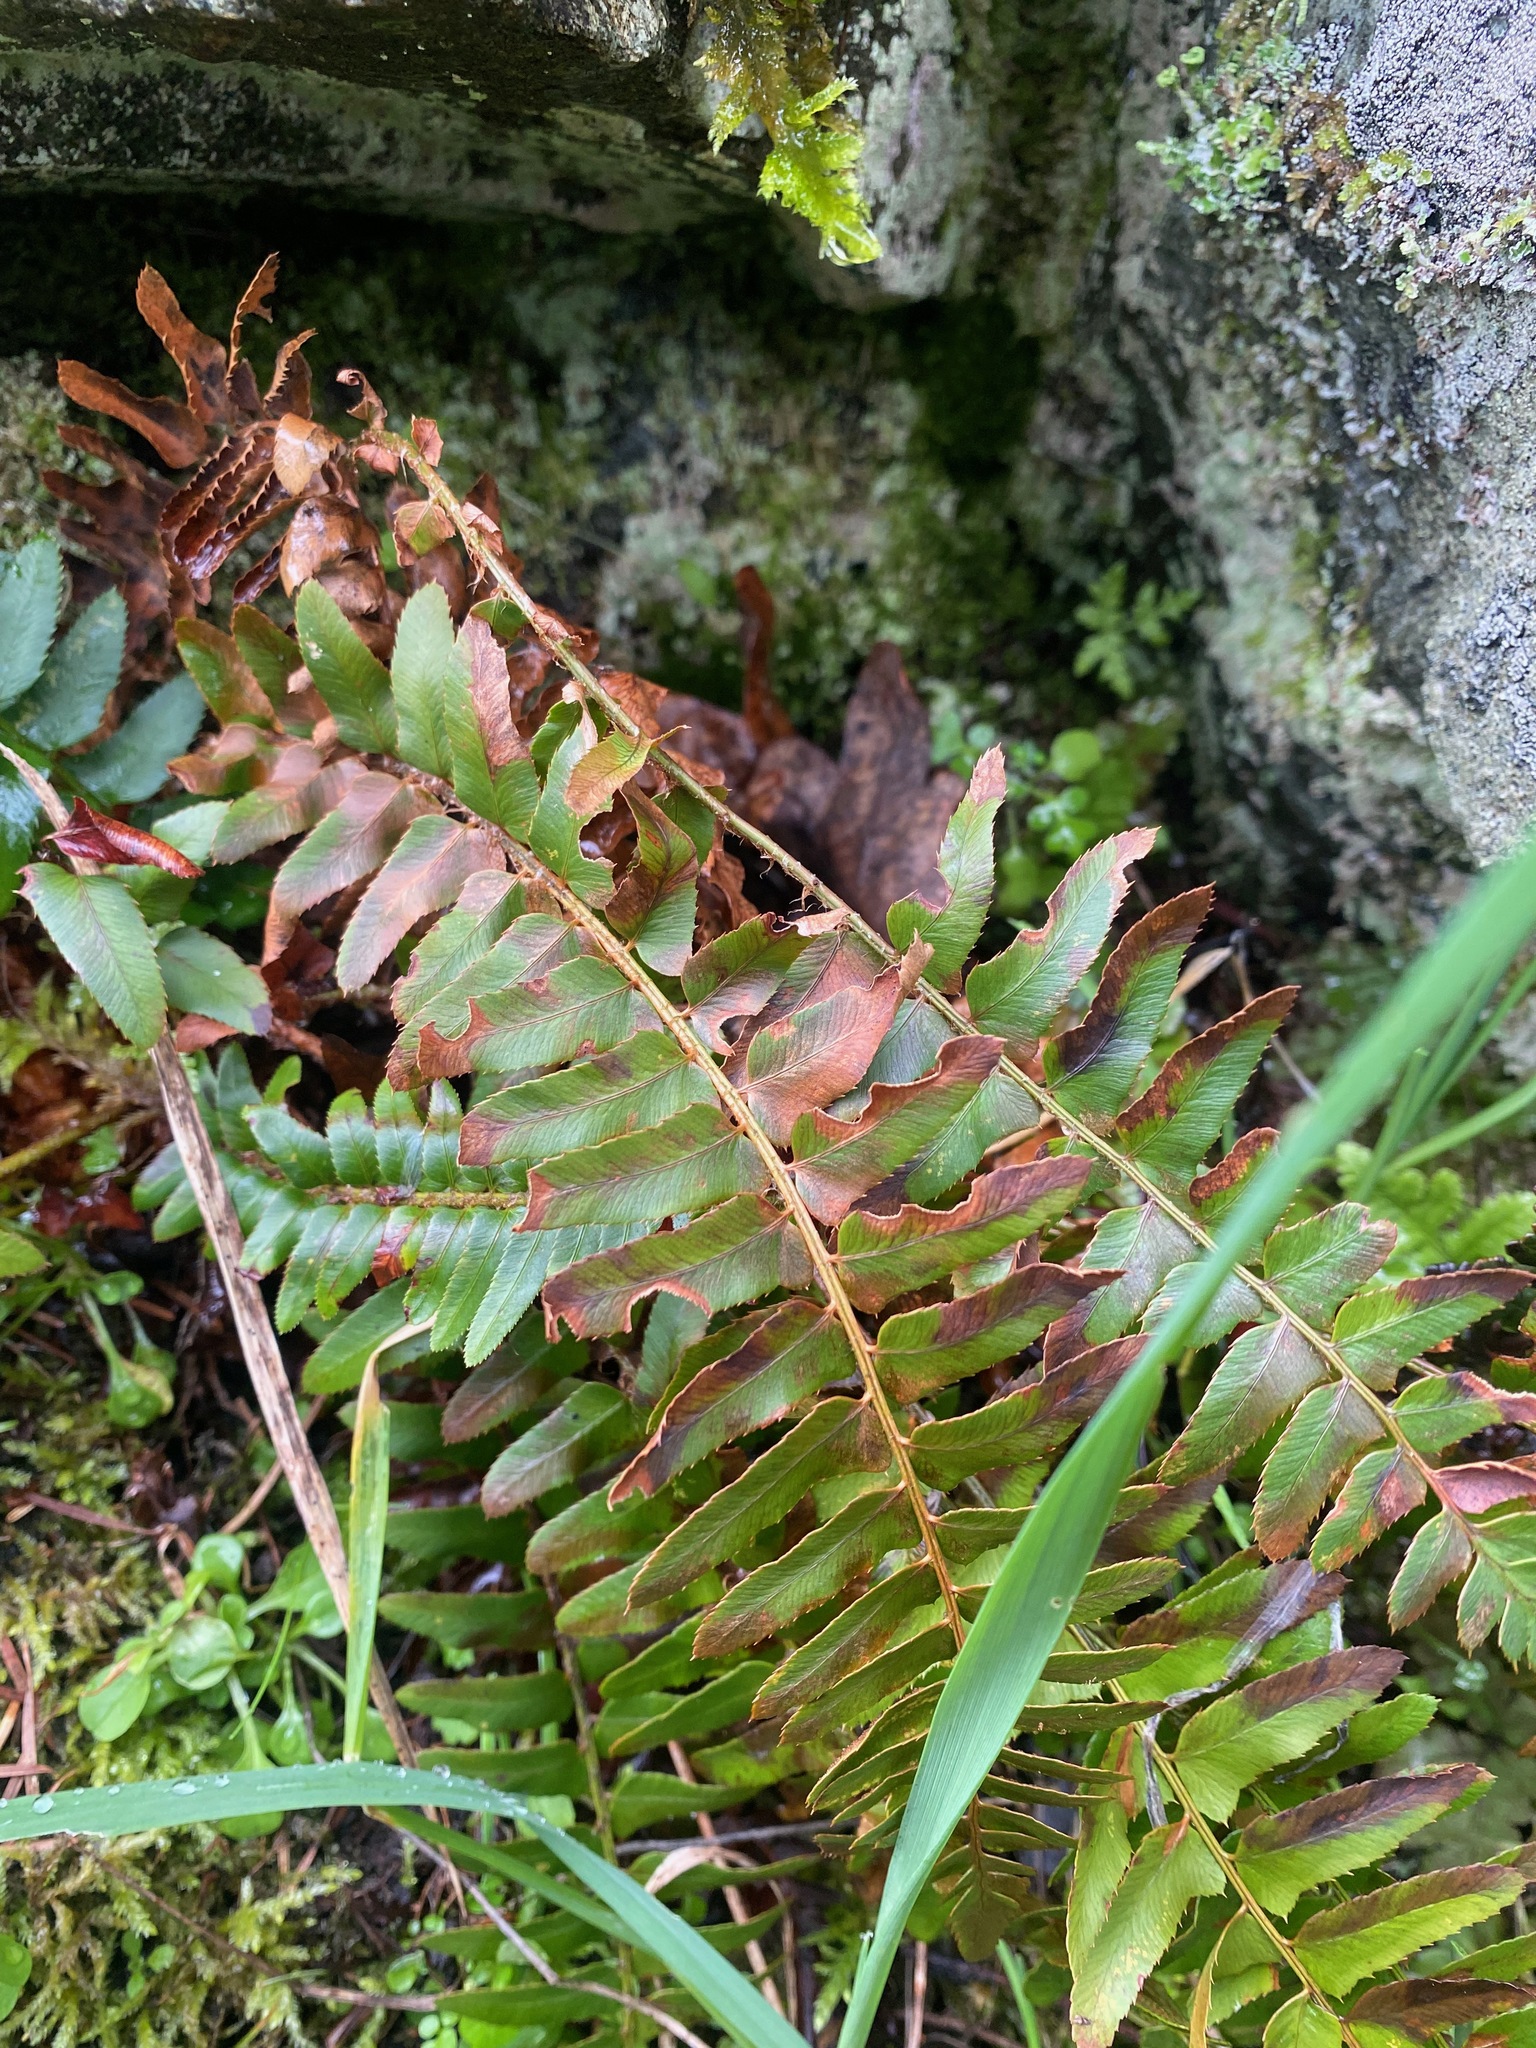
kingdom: Plantae
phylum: Tracheophyta
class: Polypodiopsida
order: Polypodiales
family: Dryopteridaceae
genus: Polystichum
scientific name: Polystichum munitum
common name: Western sword-fern
